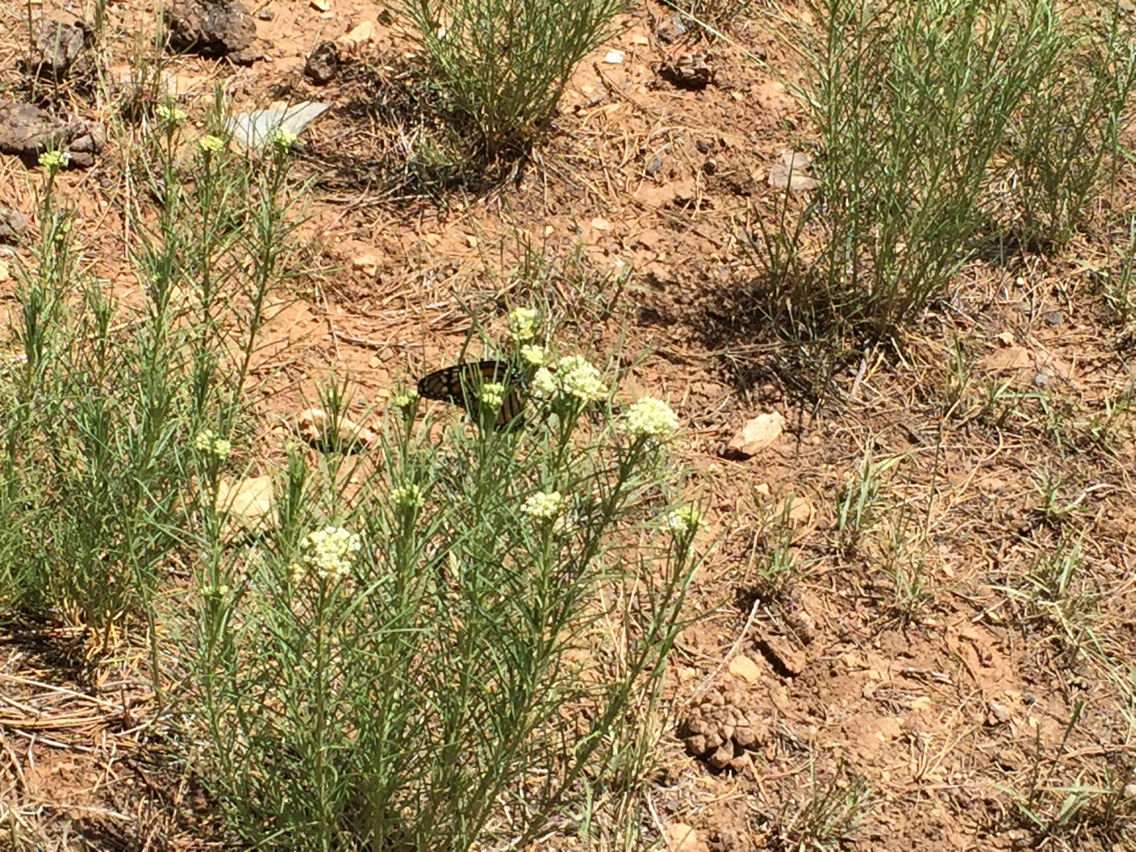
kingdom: Animalia
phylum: Arthropoda
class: Insecta
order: Lepidoptera
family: Nymphalidae
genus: Danaus
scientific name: Danaus plexippus
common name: Monarch
